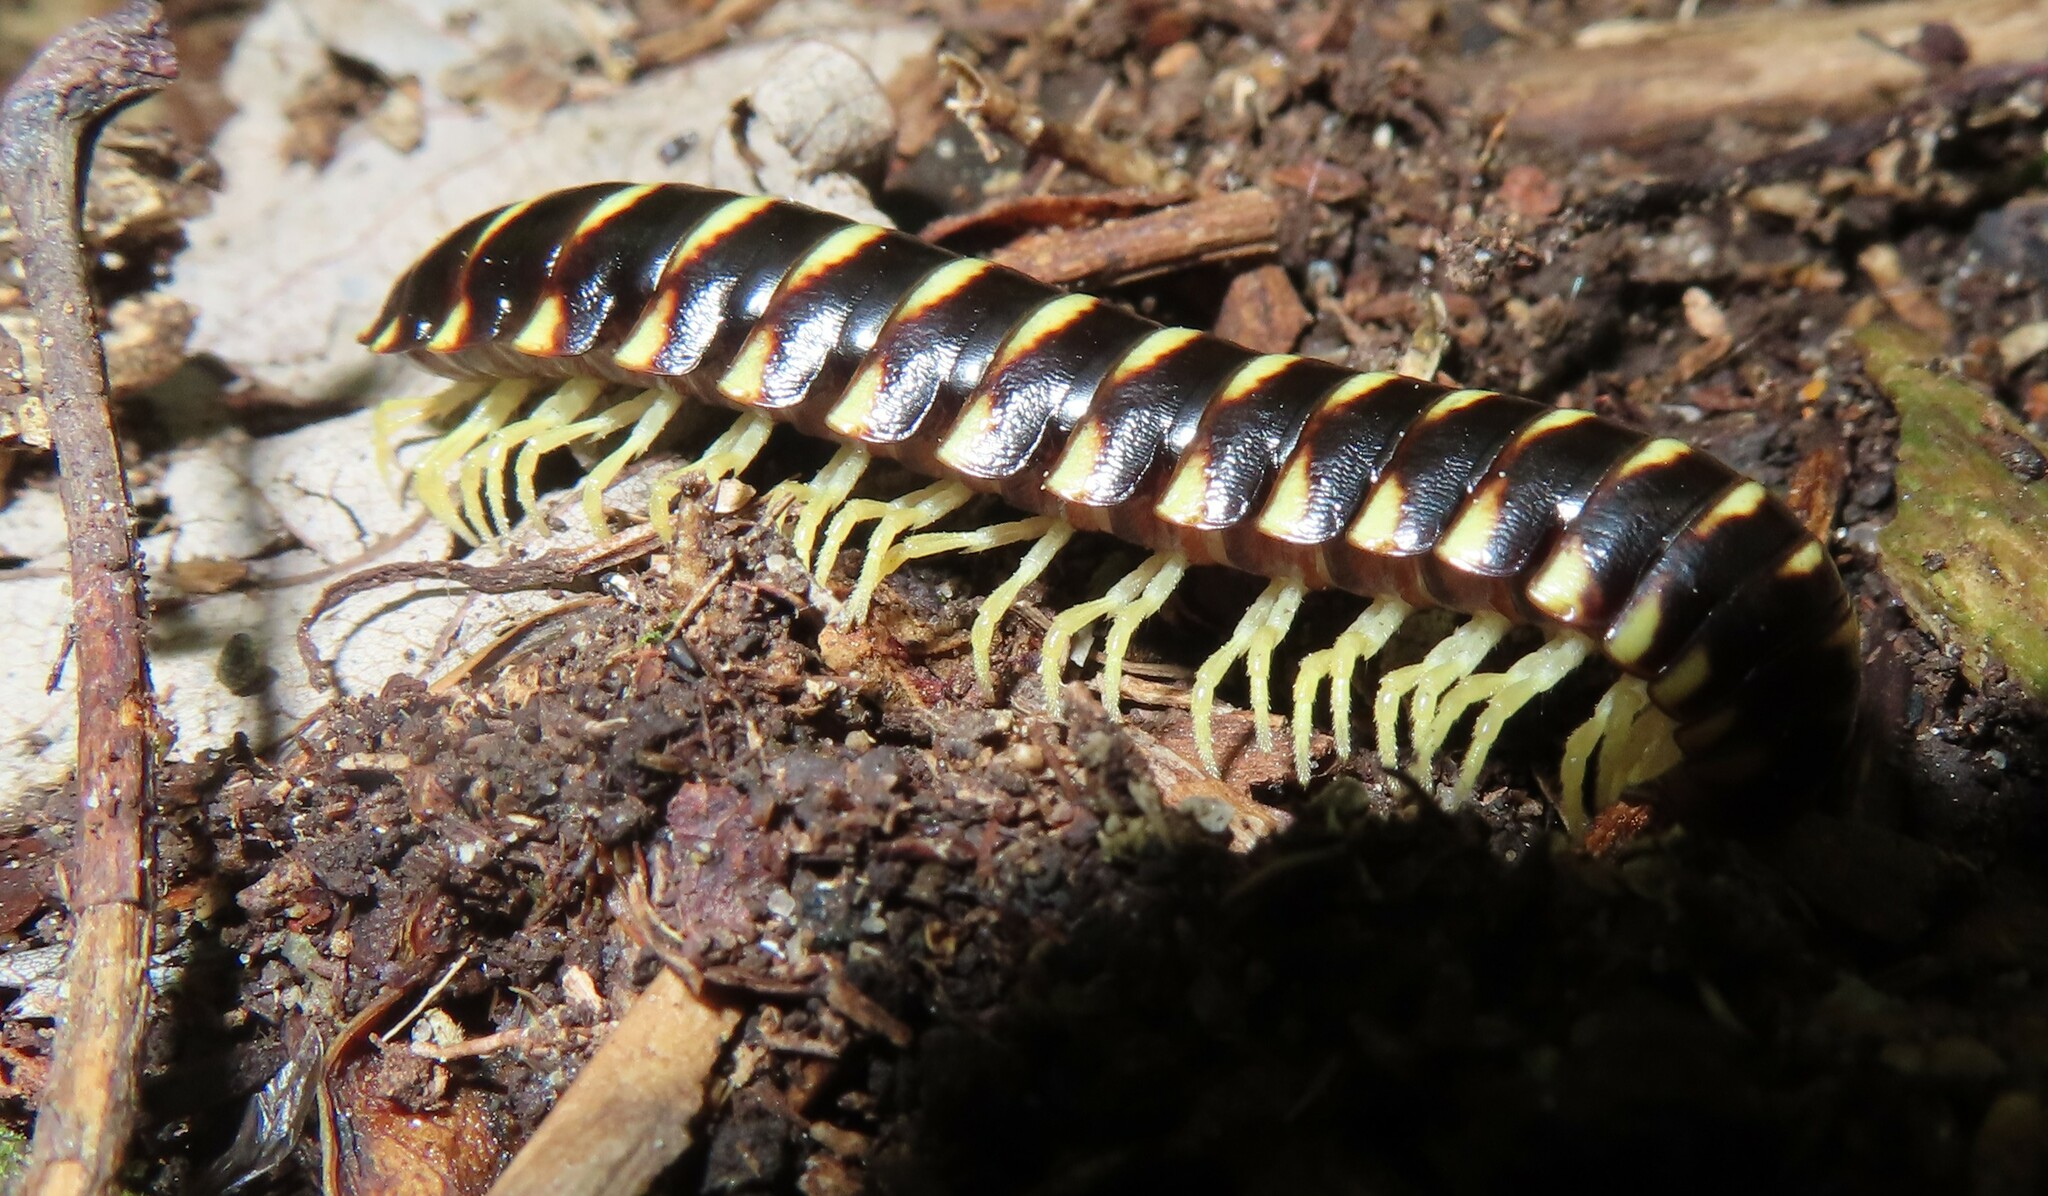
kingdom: Animalia
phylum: Arthropoda
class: Diplopoda
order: Polydesmida
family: Xystodesmidae
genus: Cherokia
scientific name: Cherokia georgiana
